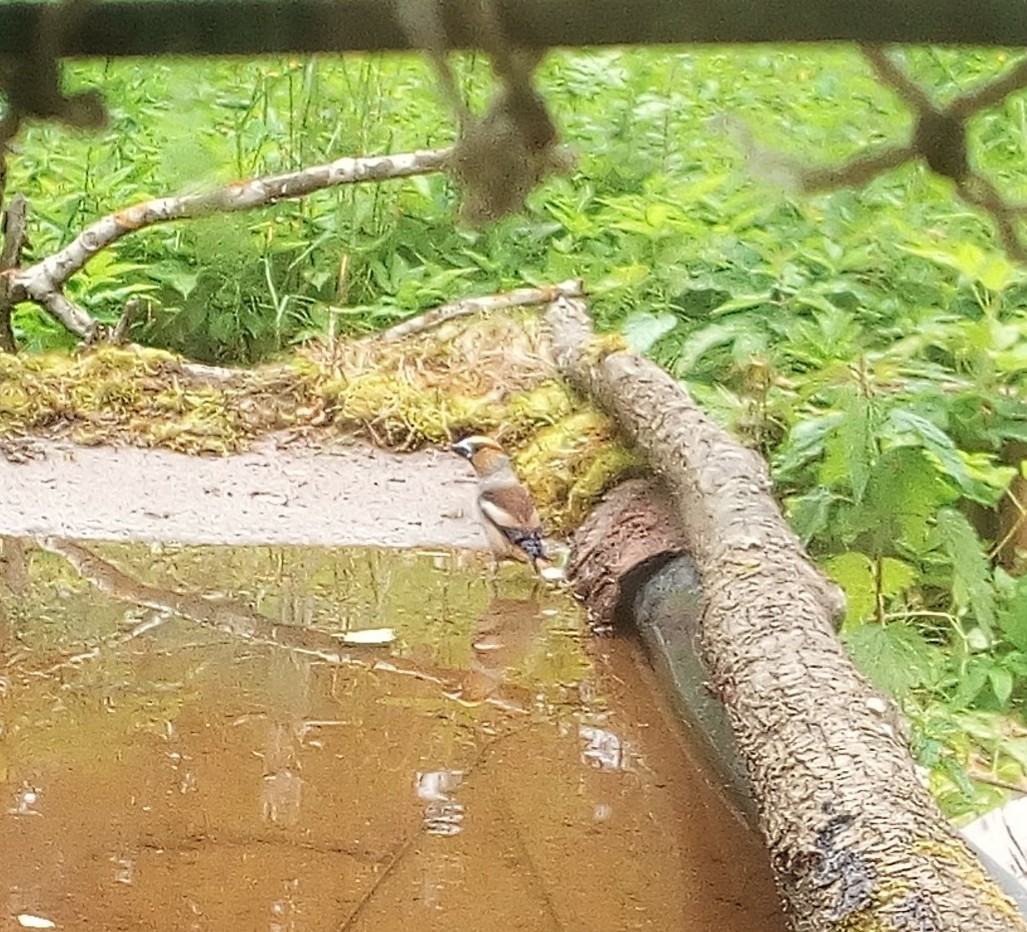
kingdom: Animalia
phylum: Chordata
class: Aves
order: Passeriformes
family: Fringillidae
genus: Coccothraustes
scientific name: Coccothraustes coccothraustes
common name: Hawfinch
